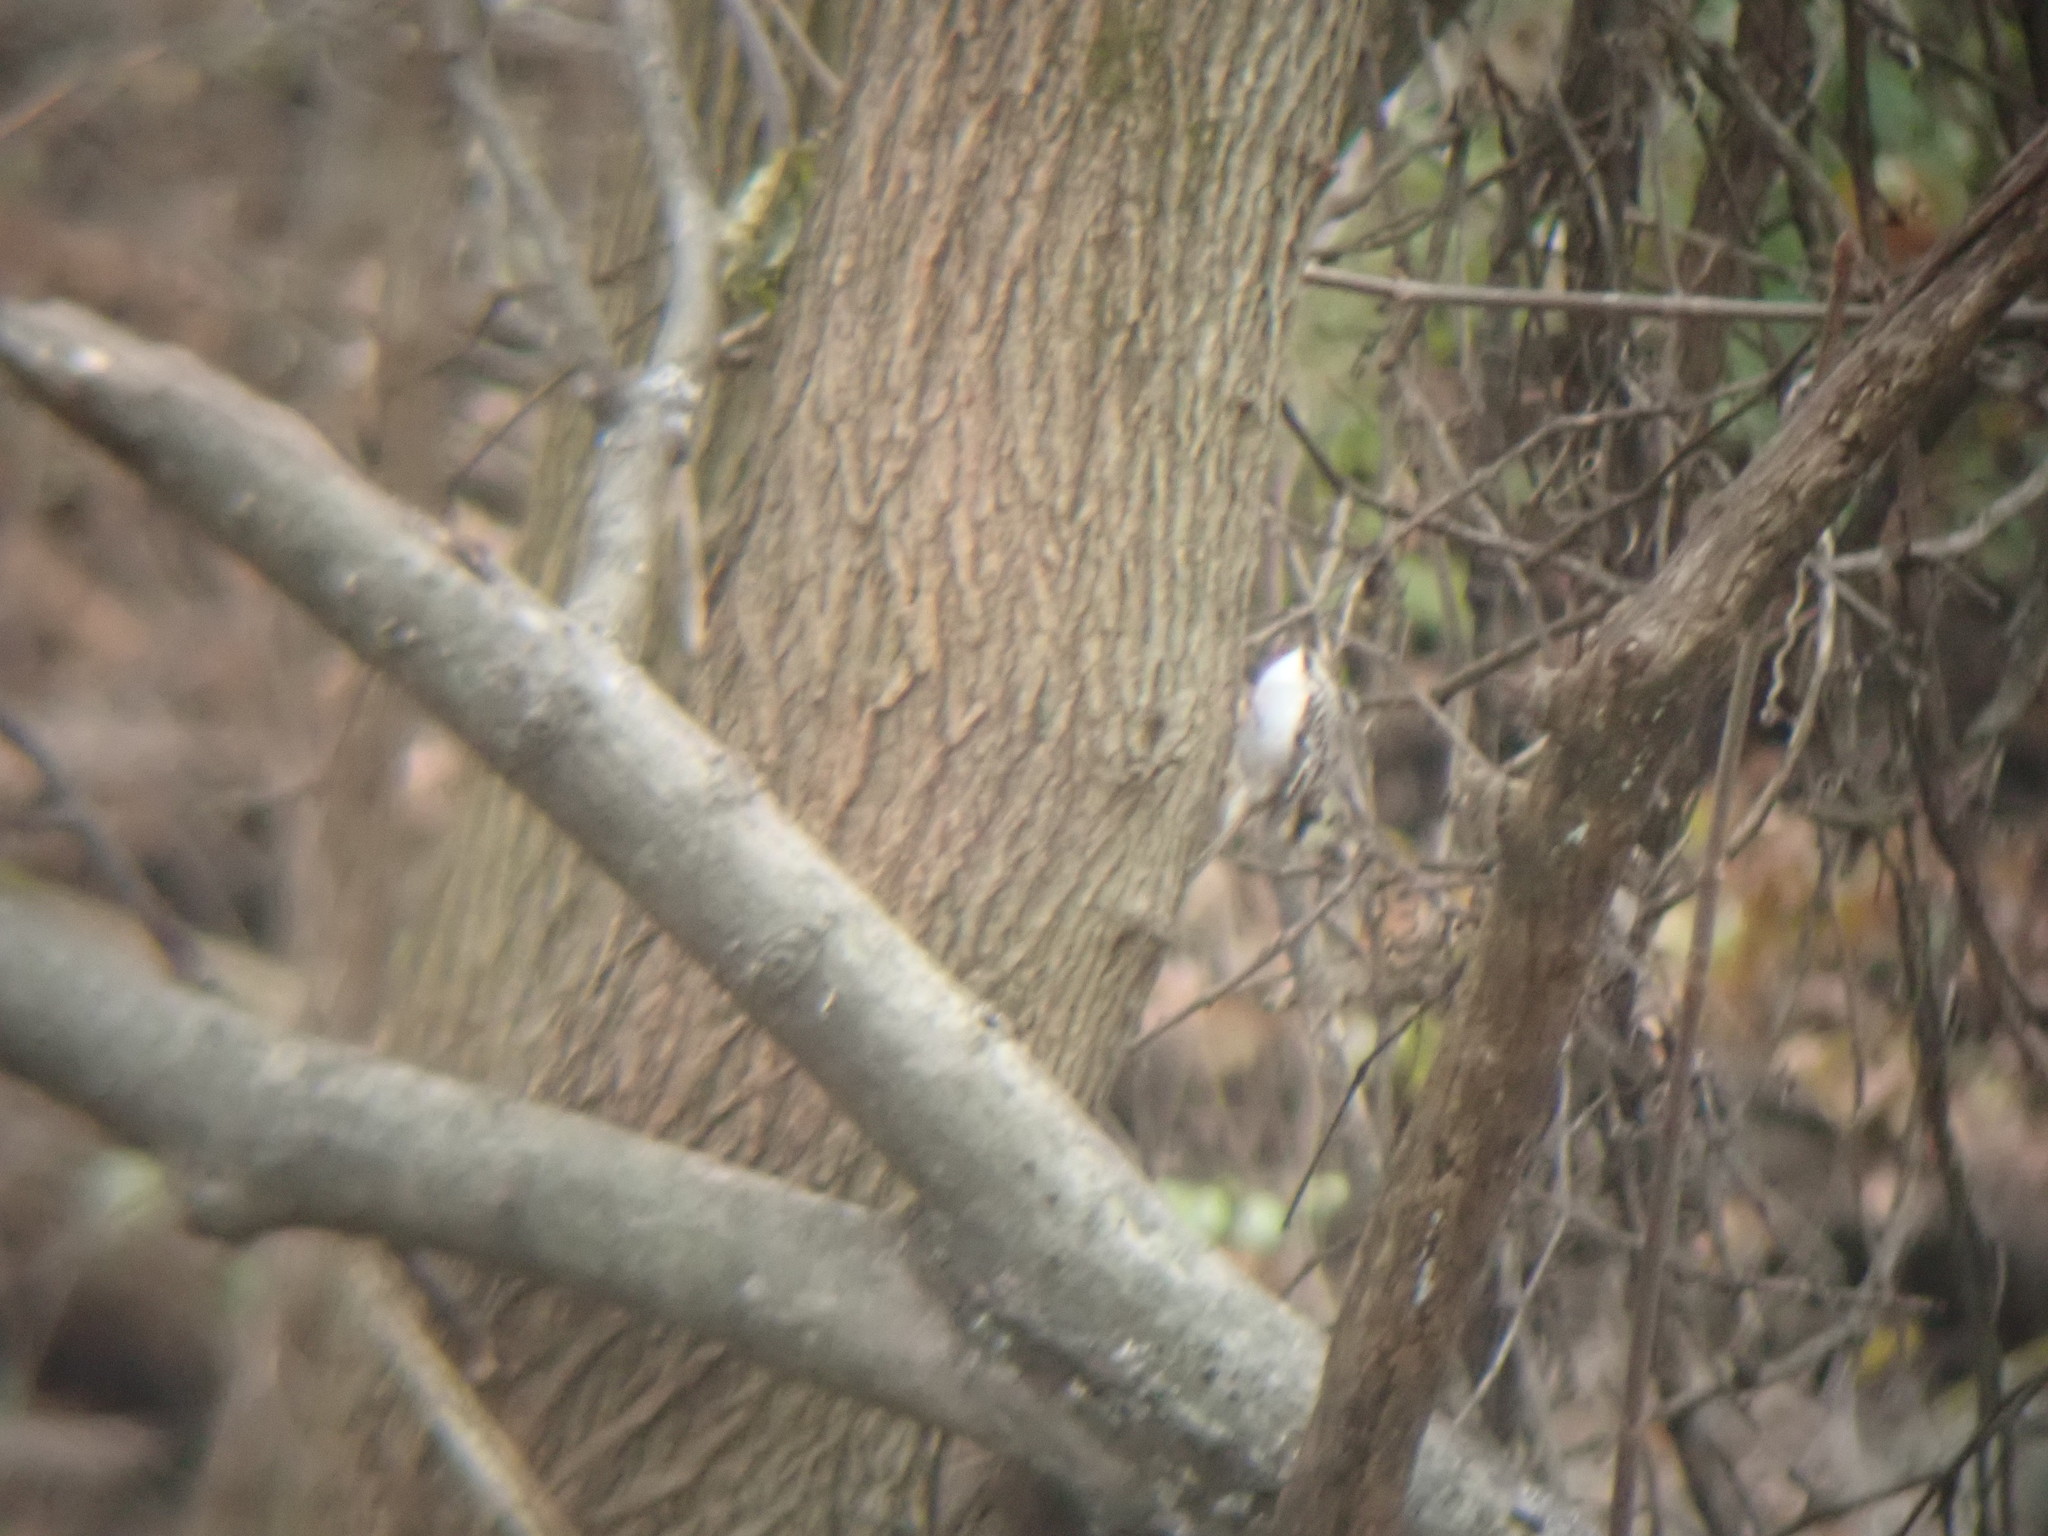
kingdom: Animalia
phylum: Chordata
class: Aves
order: Passeriformes
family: Certhiidae
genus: Certhia
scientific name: Certhia americana
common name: Brown creeper
